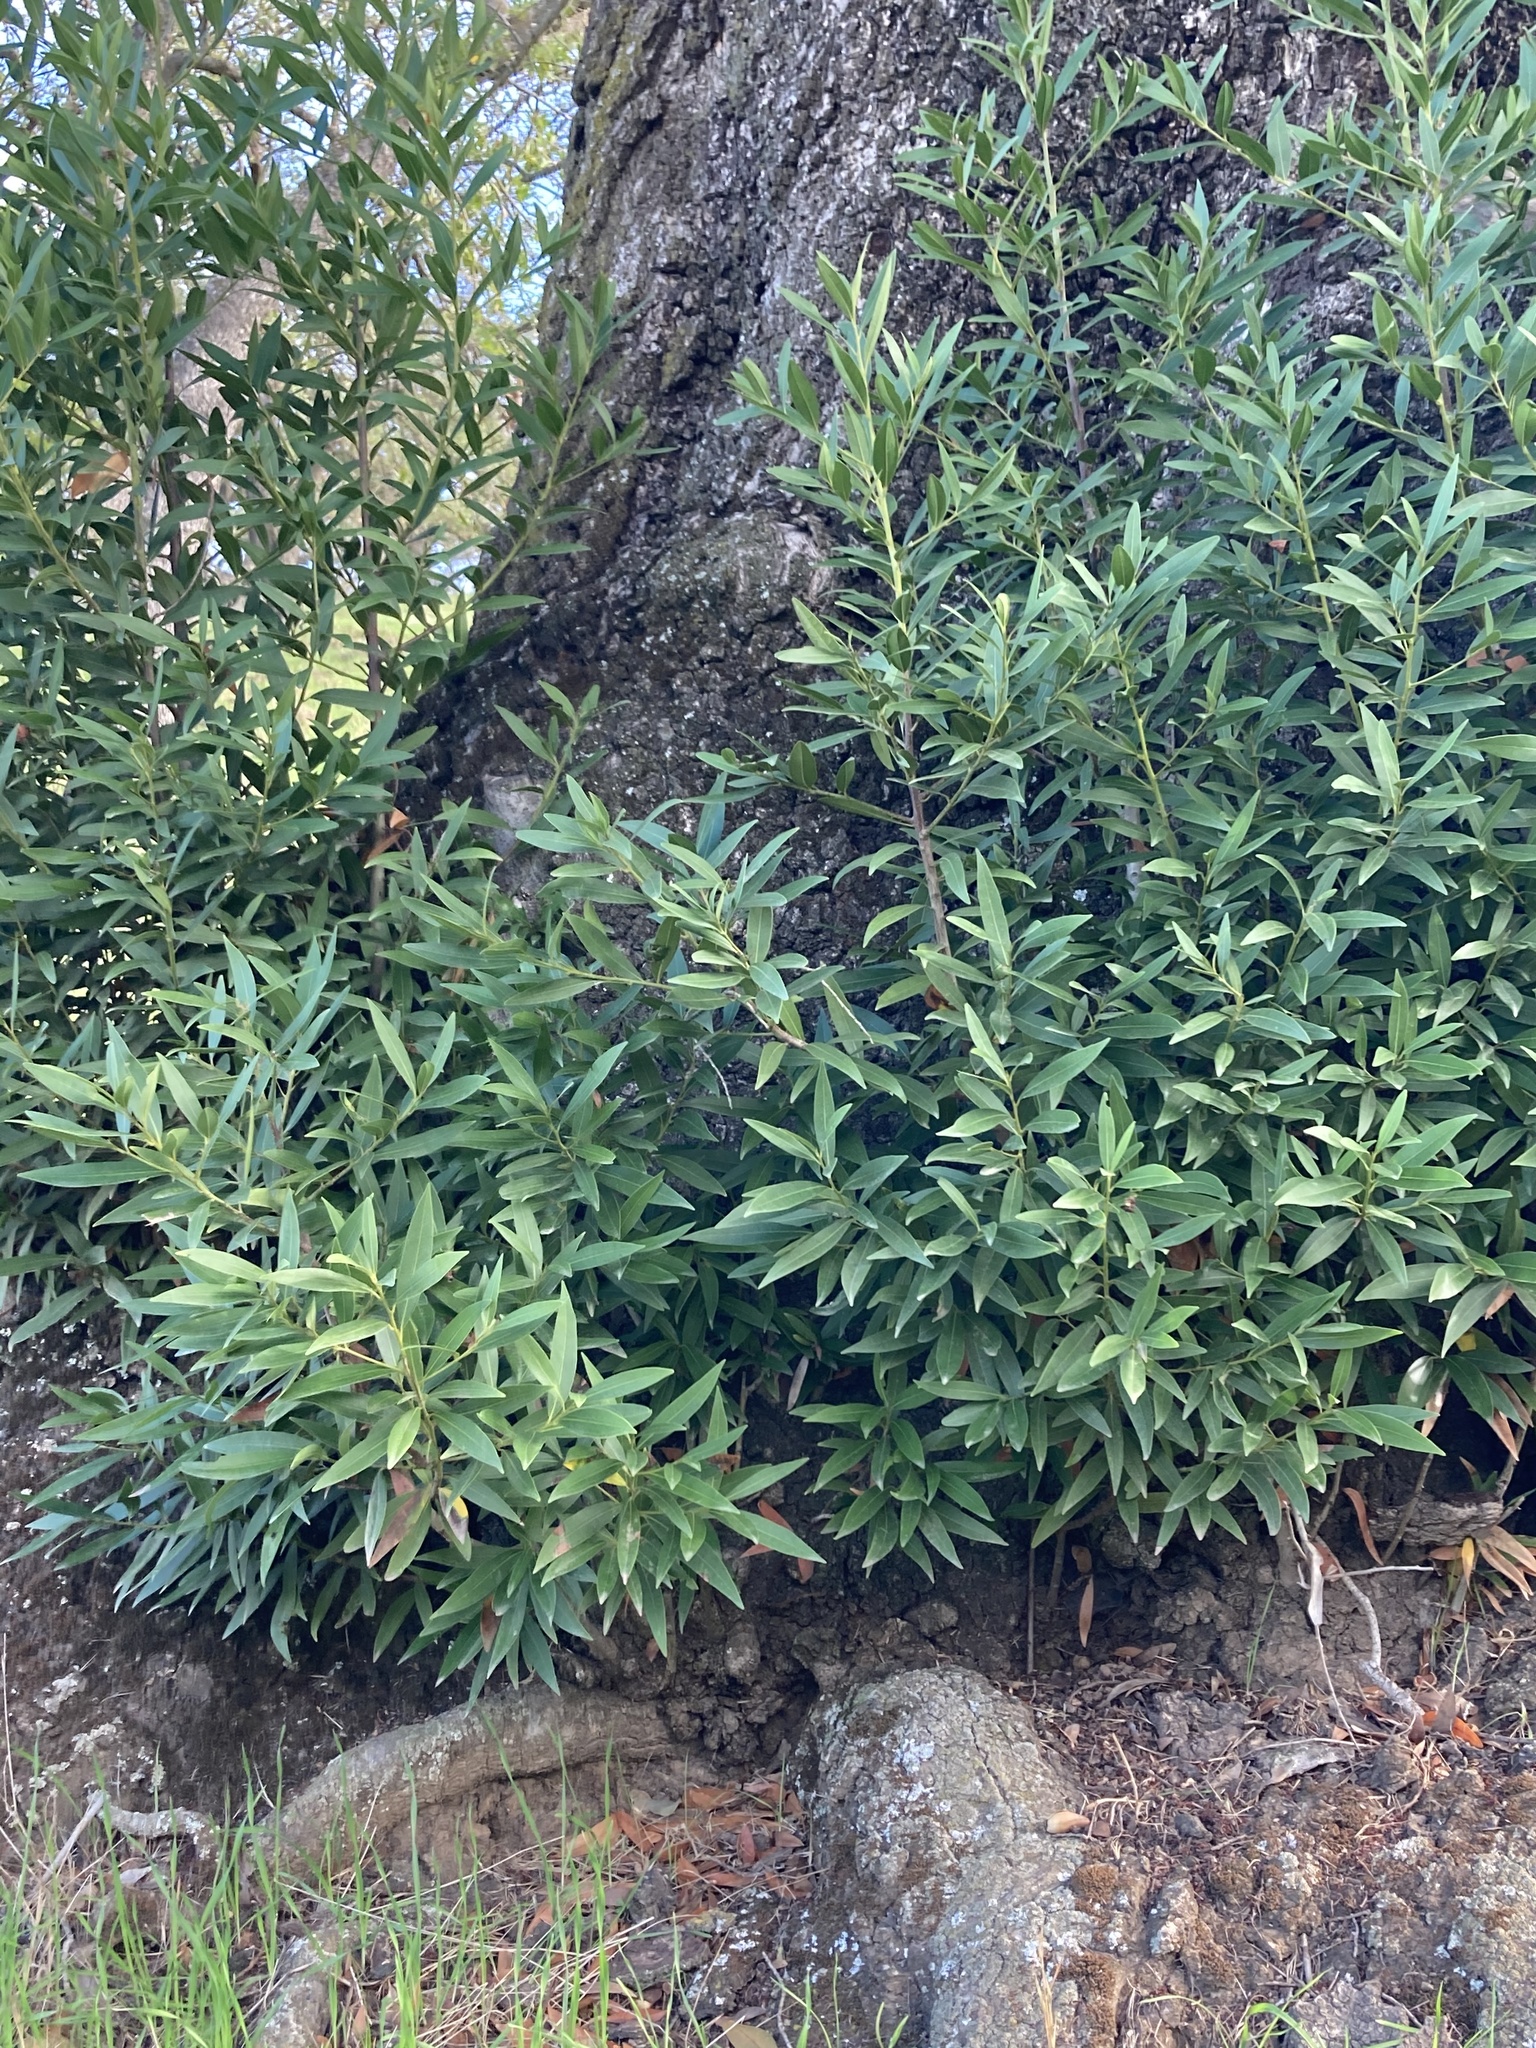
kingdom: Plantae
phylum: Tracheophyta
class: Magnoliopsida
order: Laurales
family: Lauraceae
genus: Umbellularia
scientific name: Umbellularia californica
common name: California bay
